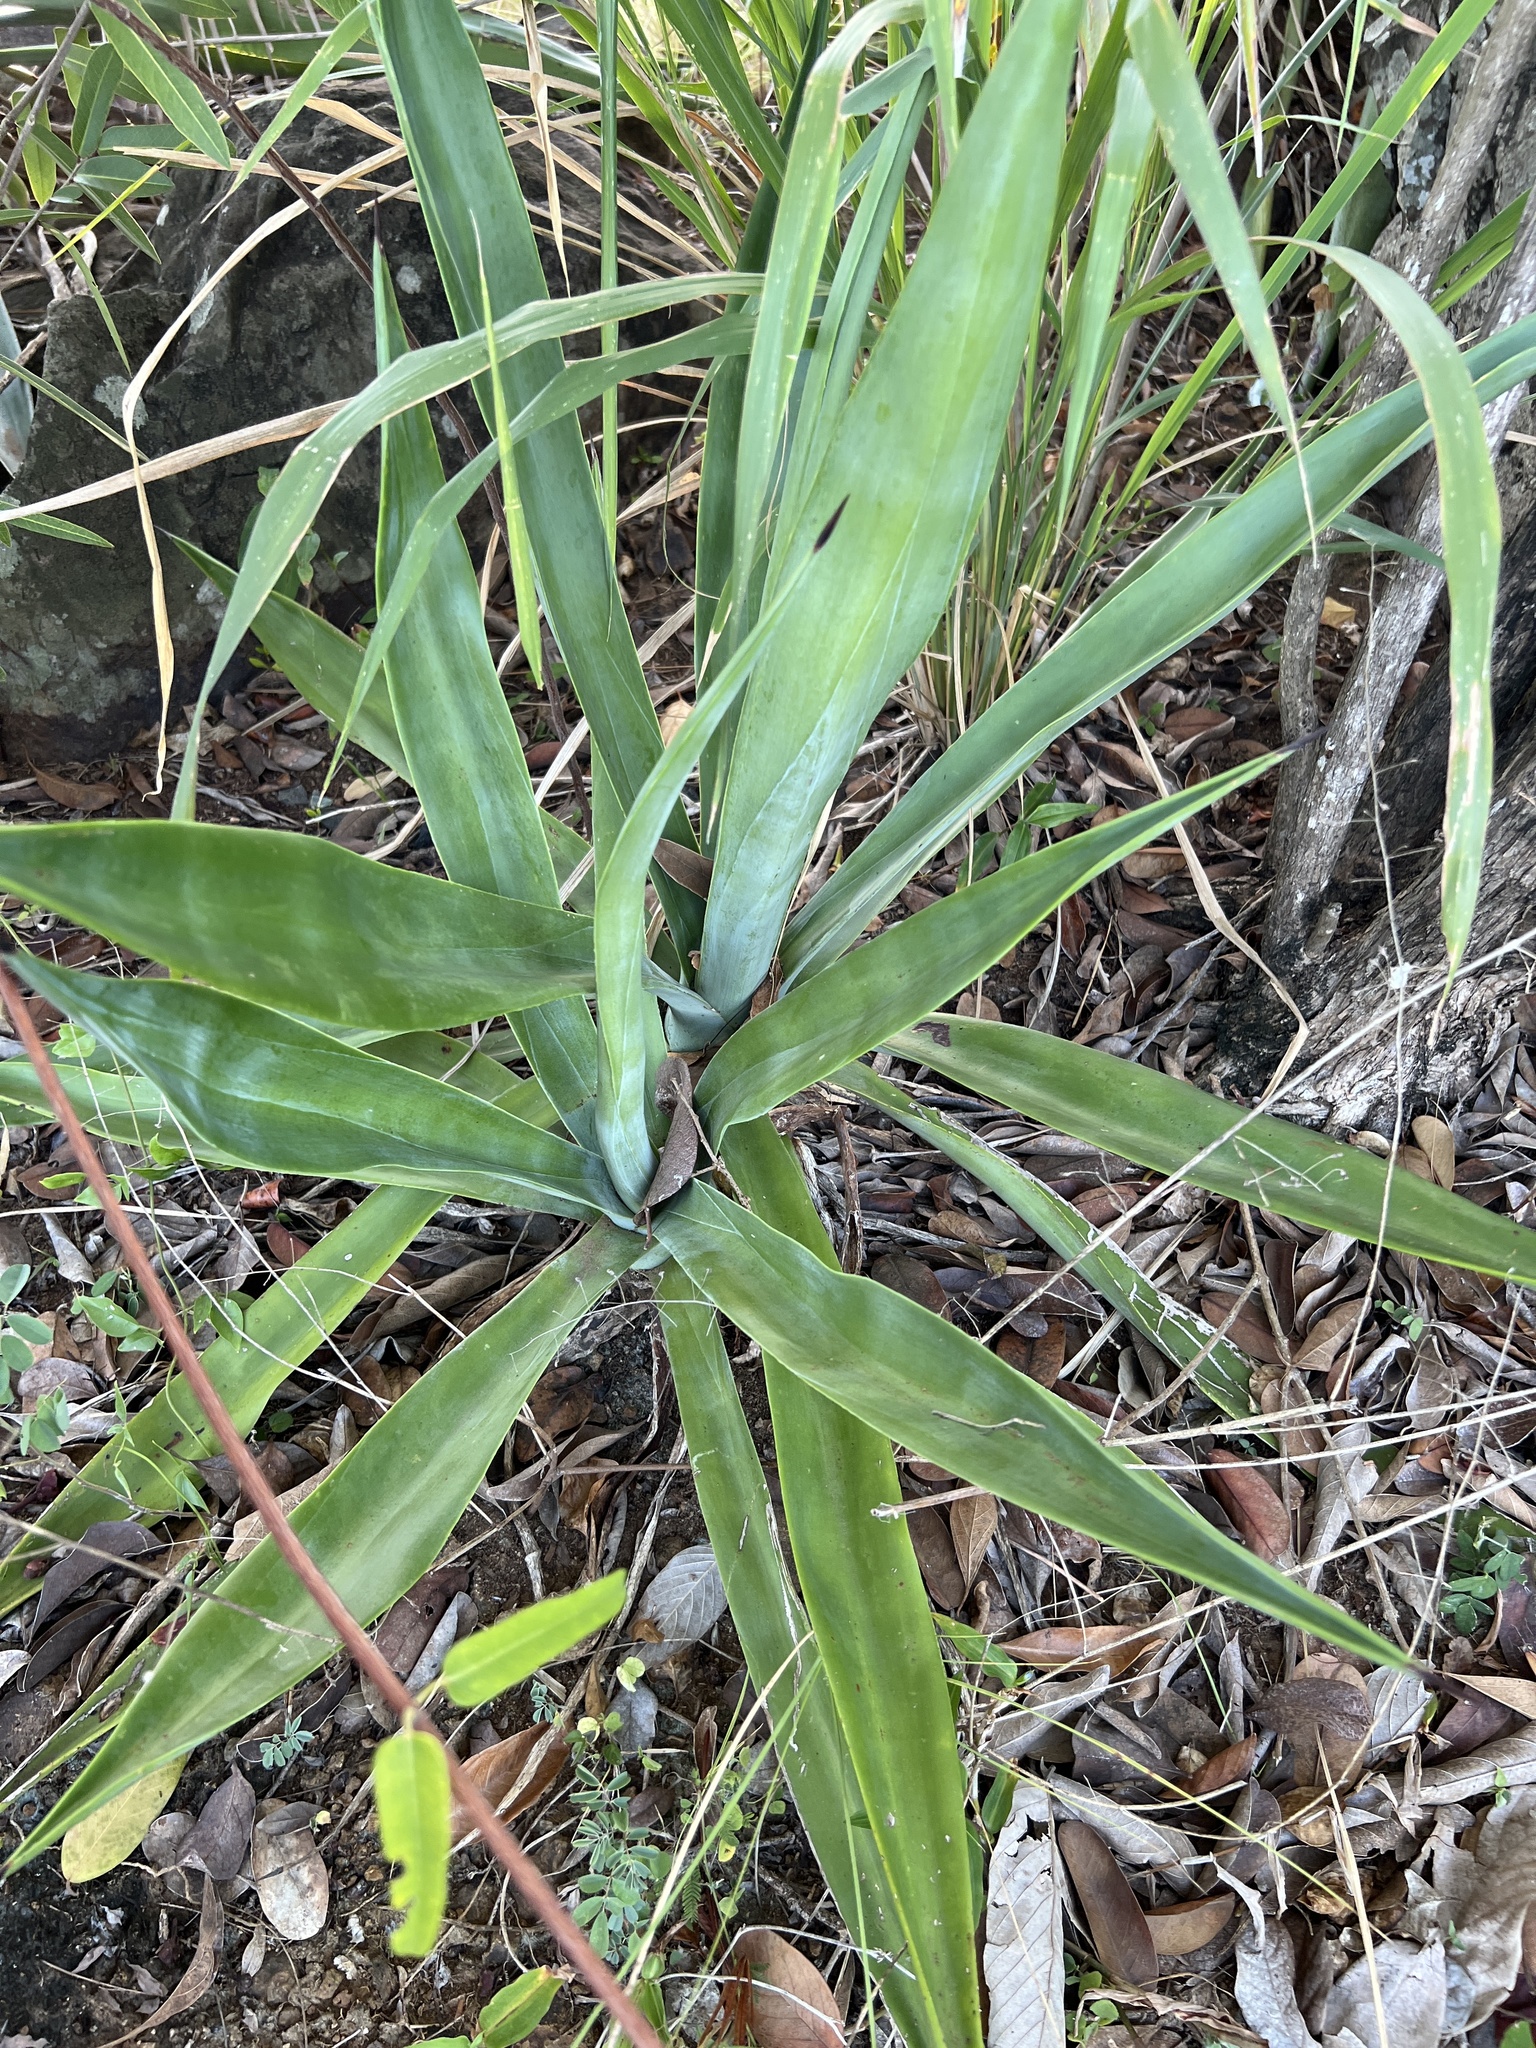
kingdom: Plantae
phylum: Tracheophyta
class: Liliopsida
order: Asparagales
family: Asparagaceae
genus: Agave
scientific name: Agave sisalana
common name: Sisal hemp
